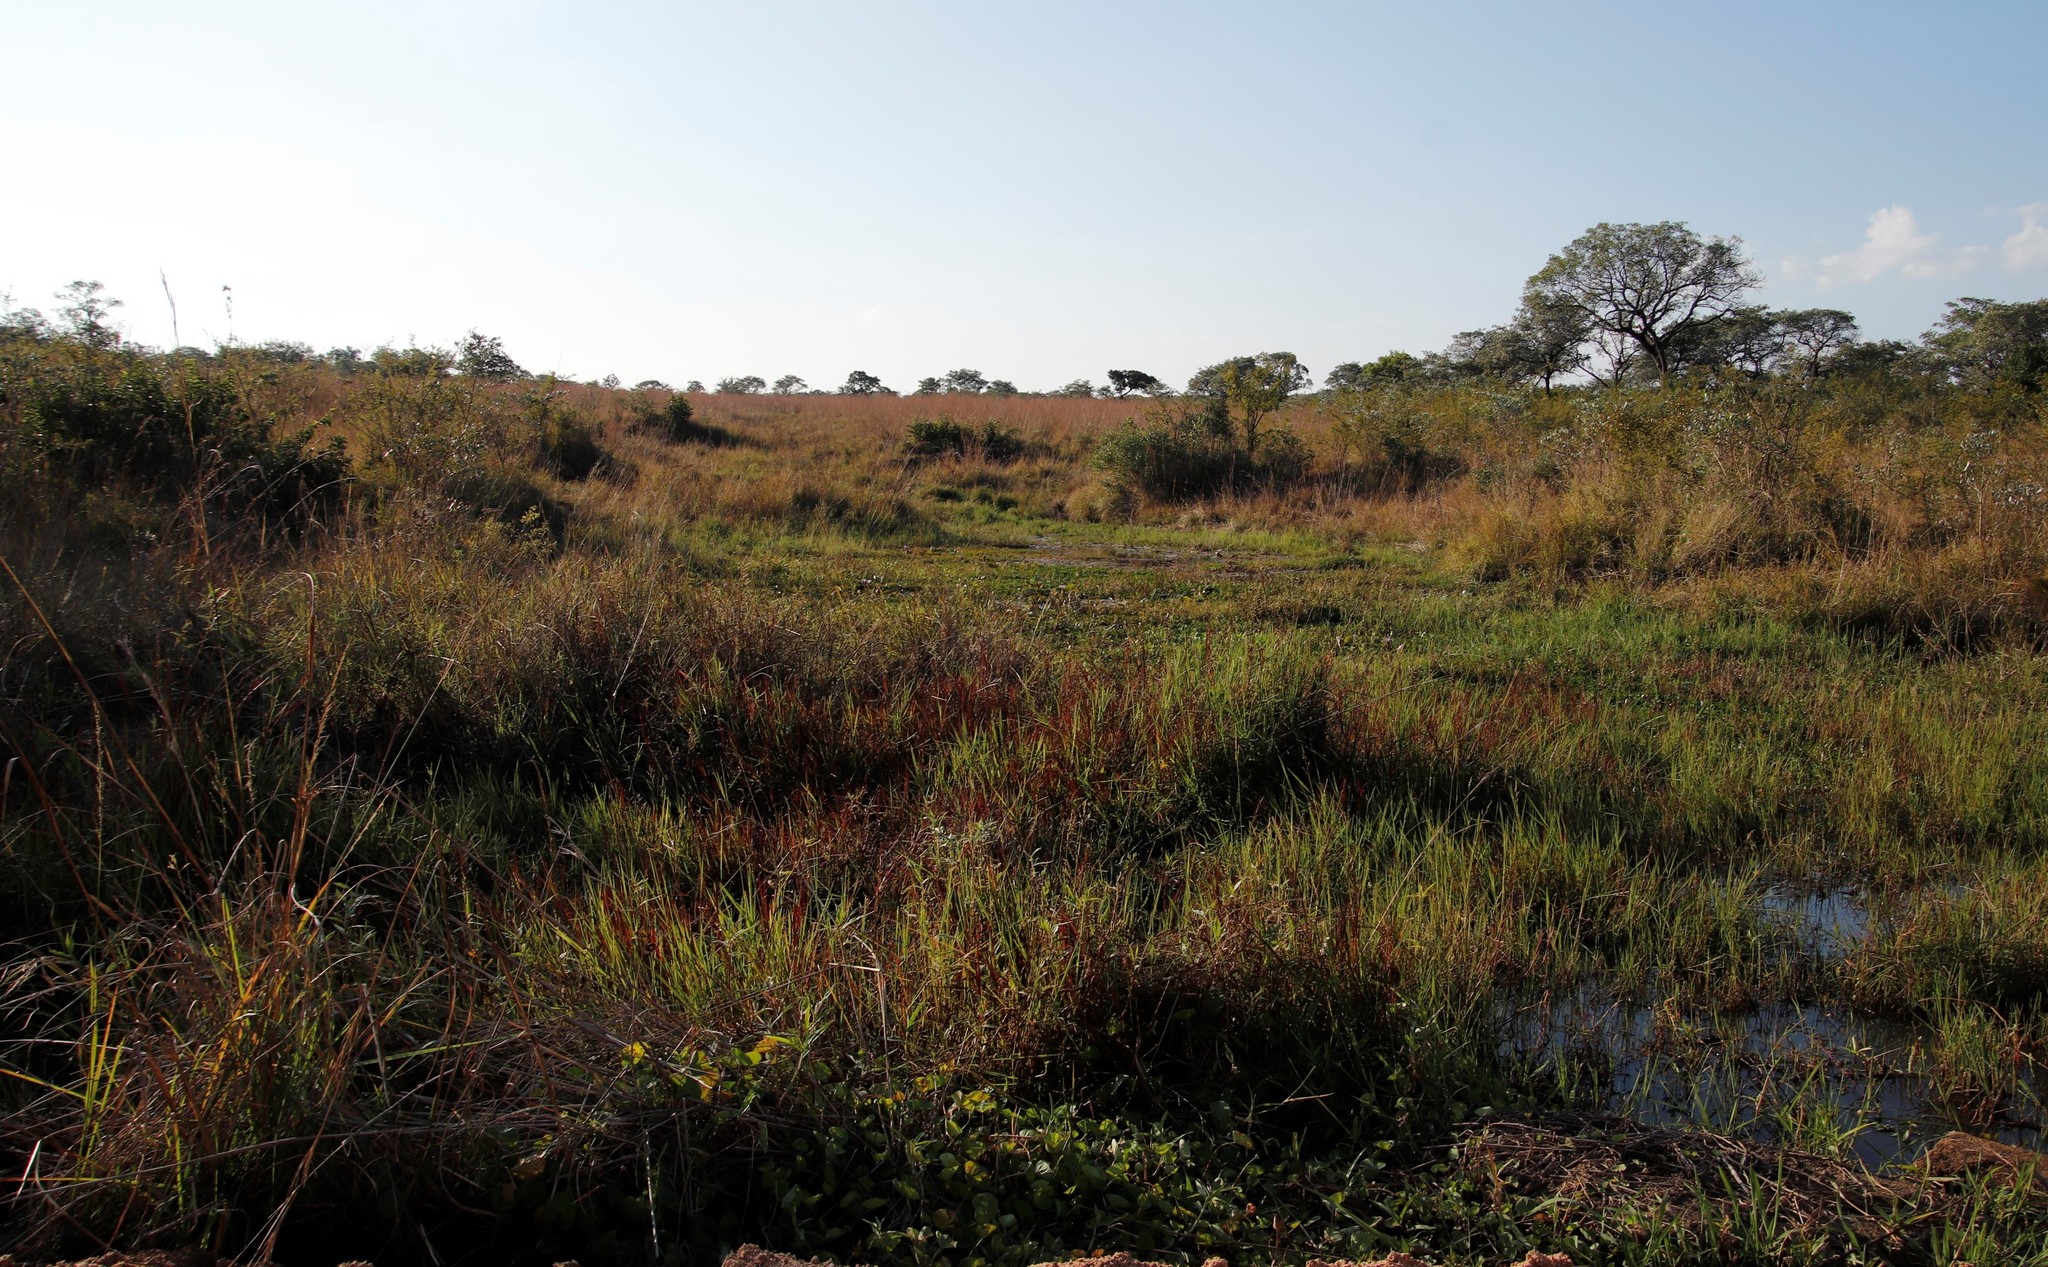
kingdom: Plantae
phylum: Tracheophyta
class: Magnoliopsida
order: Nymphaeales
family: Nymphaeaceae
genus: Nymphaea
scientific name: Nymphaea nouchali
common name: Blue lotus
